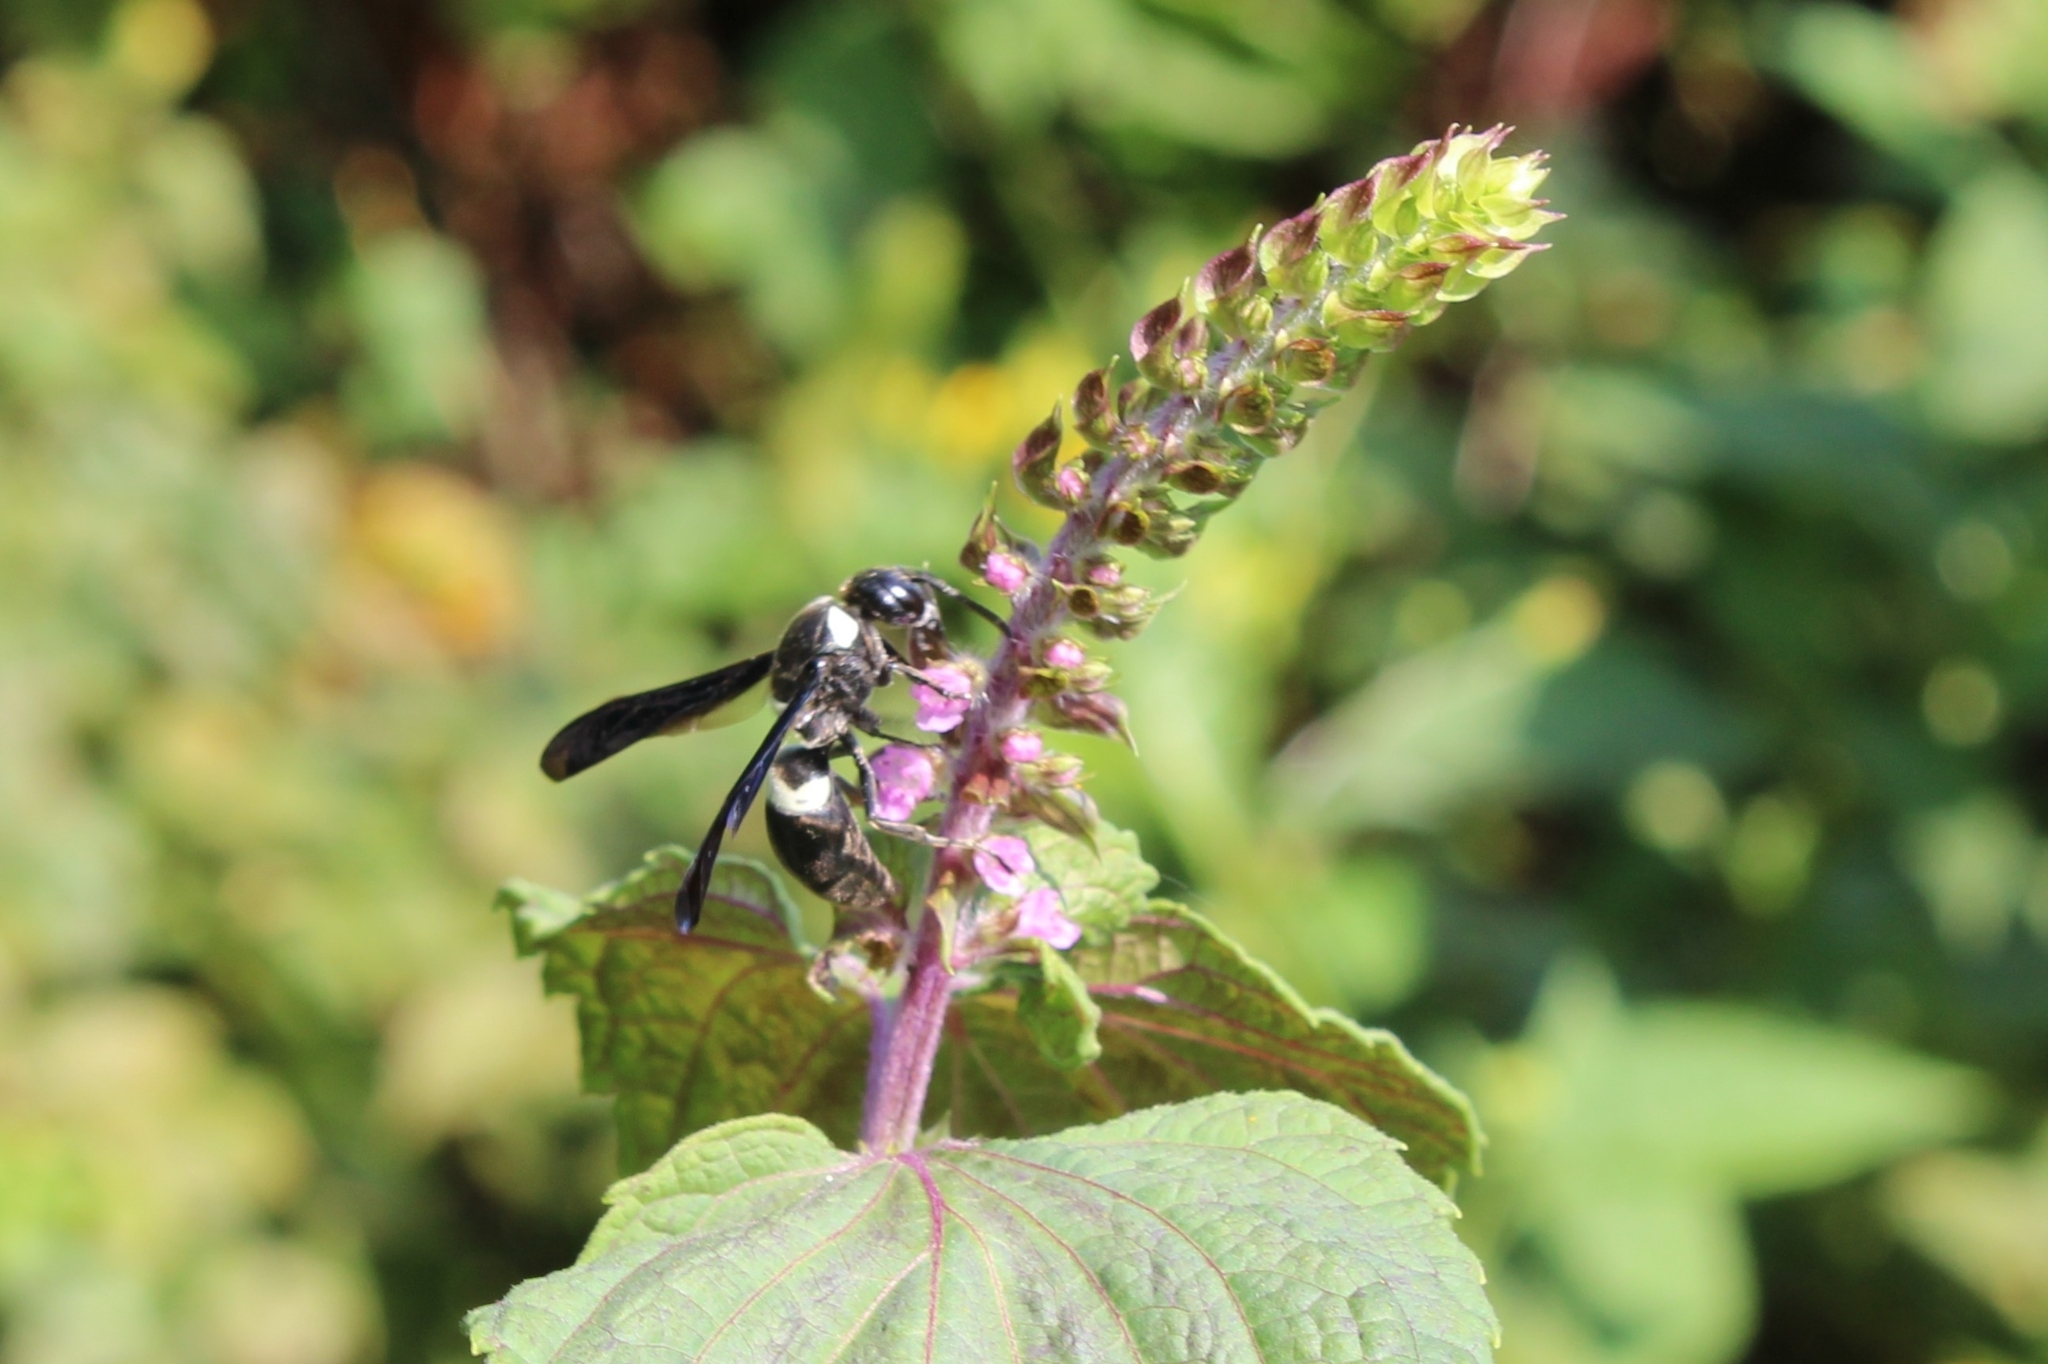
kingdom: Animalia
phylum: Arthropoda
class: Insecta
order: Hymenoptera
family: Eumenidae
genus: Monobia
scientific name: Monobia quadridens
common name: Four-toothed mason wasp
